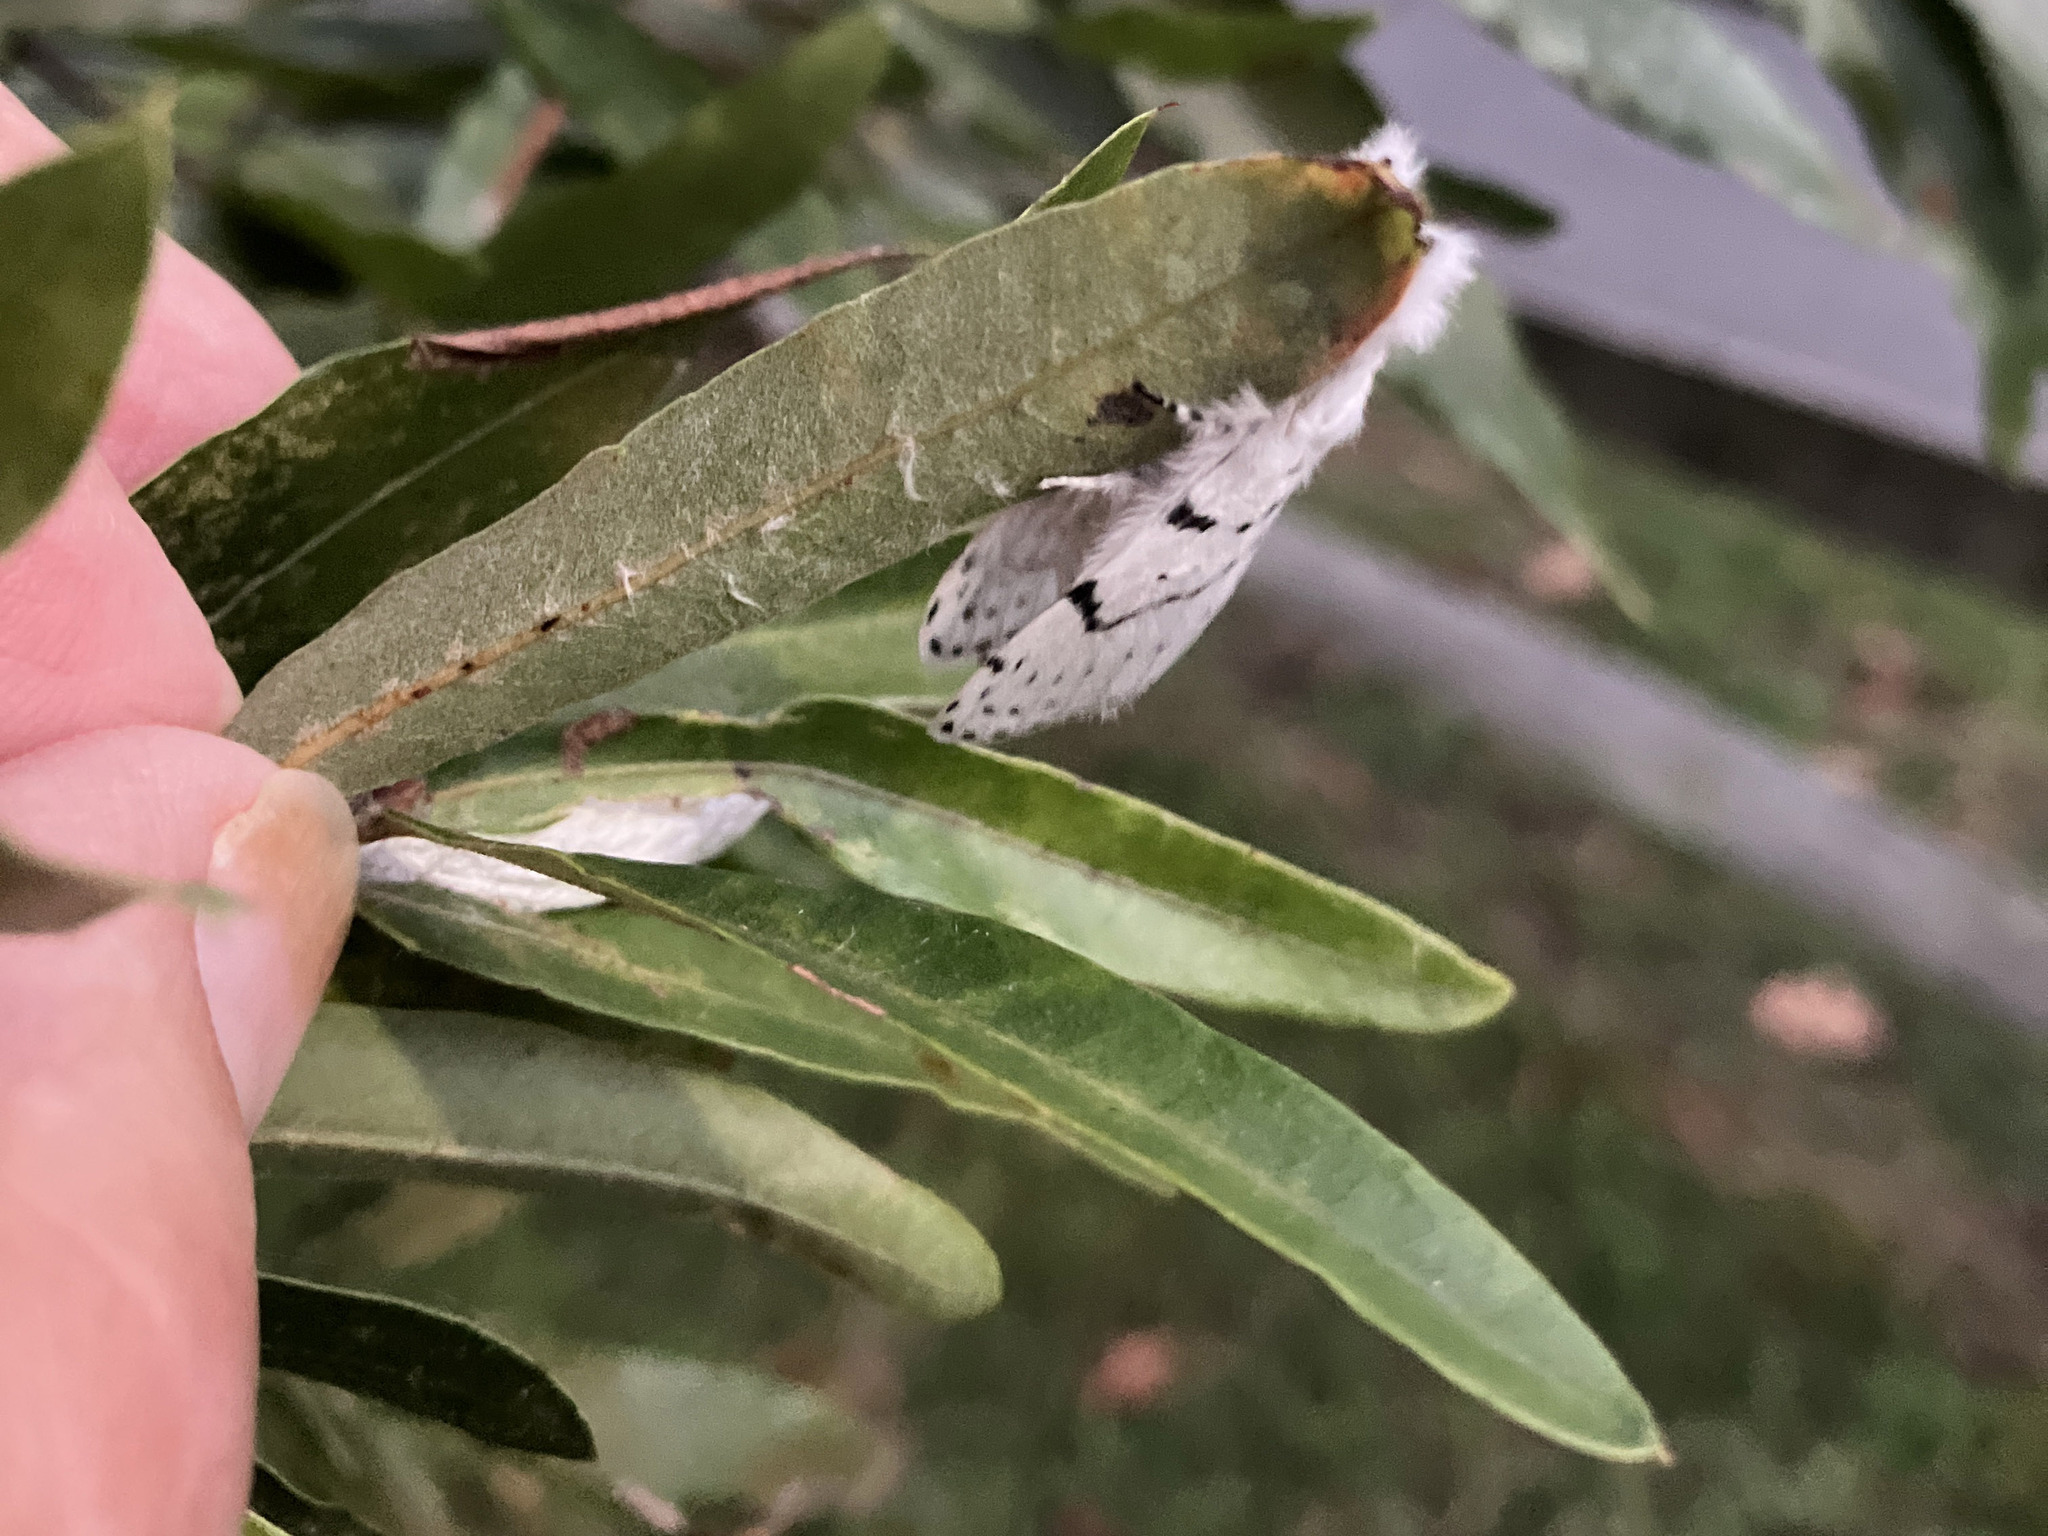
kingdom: Animalia
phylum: Arthropoda
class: Insecta
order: Lepidoptera
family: Lasiocampidae
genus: Artace
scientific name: Artace cribrarius
